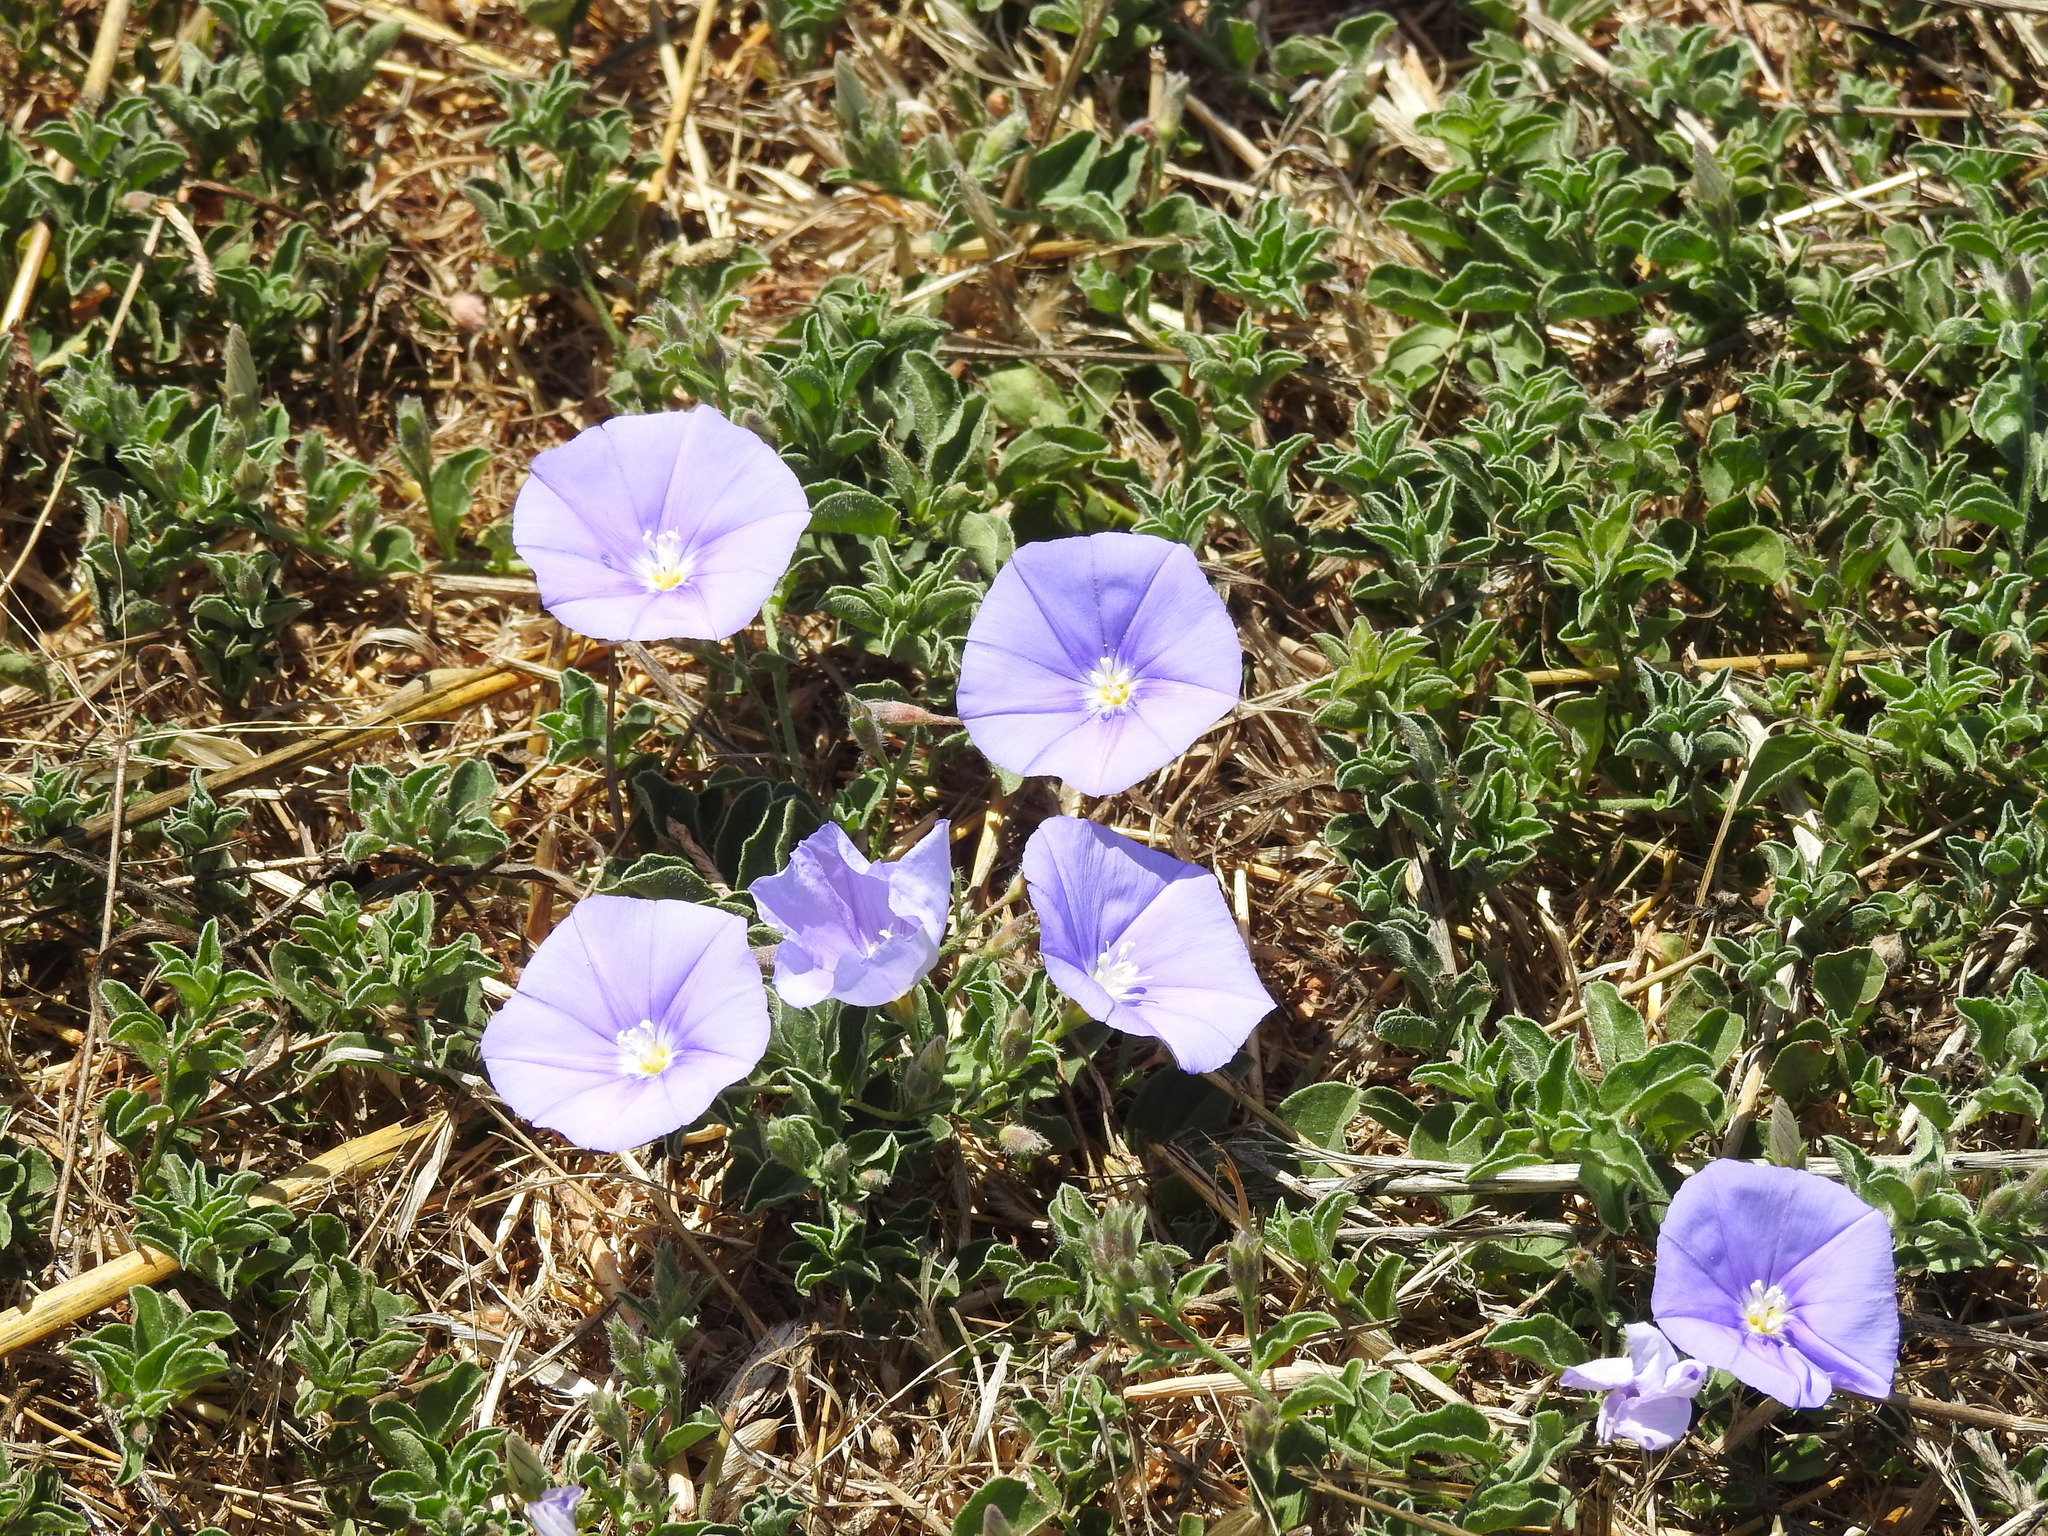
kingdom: Plantae
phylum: Tracheophyta
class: Magnoliopsida
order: Solanales
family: Convolvulaceae
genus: Convolvulus
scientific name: Convolvulus sabatius
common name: Ground blue-convolvulus
